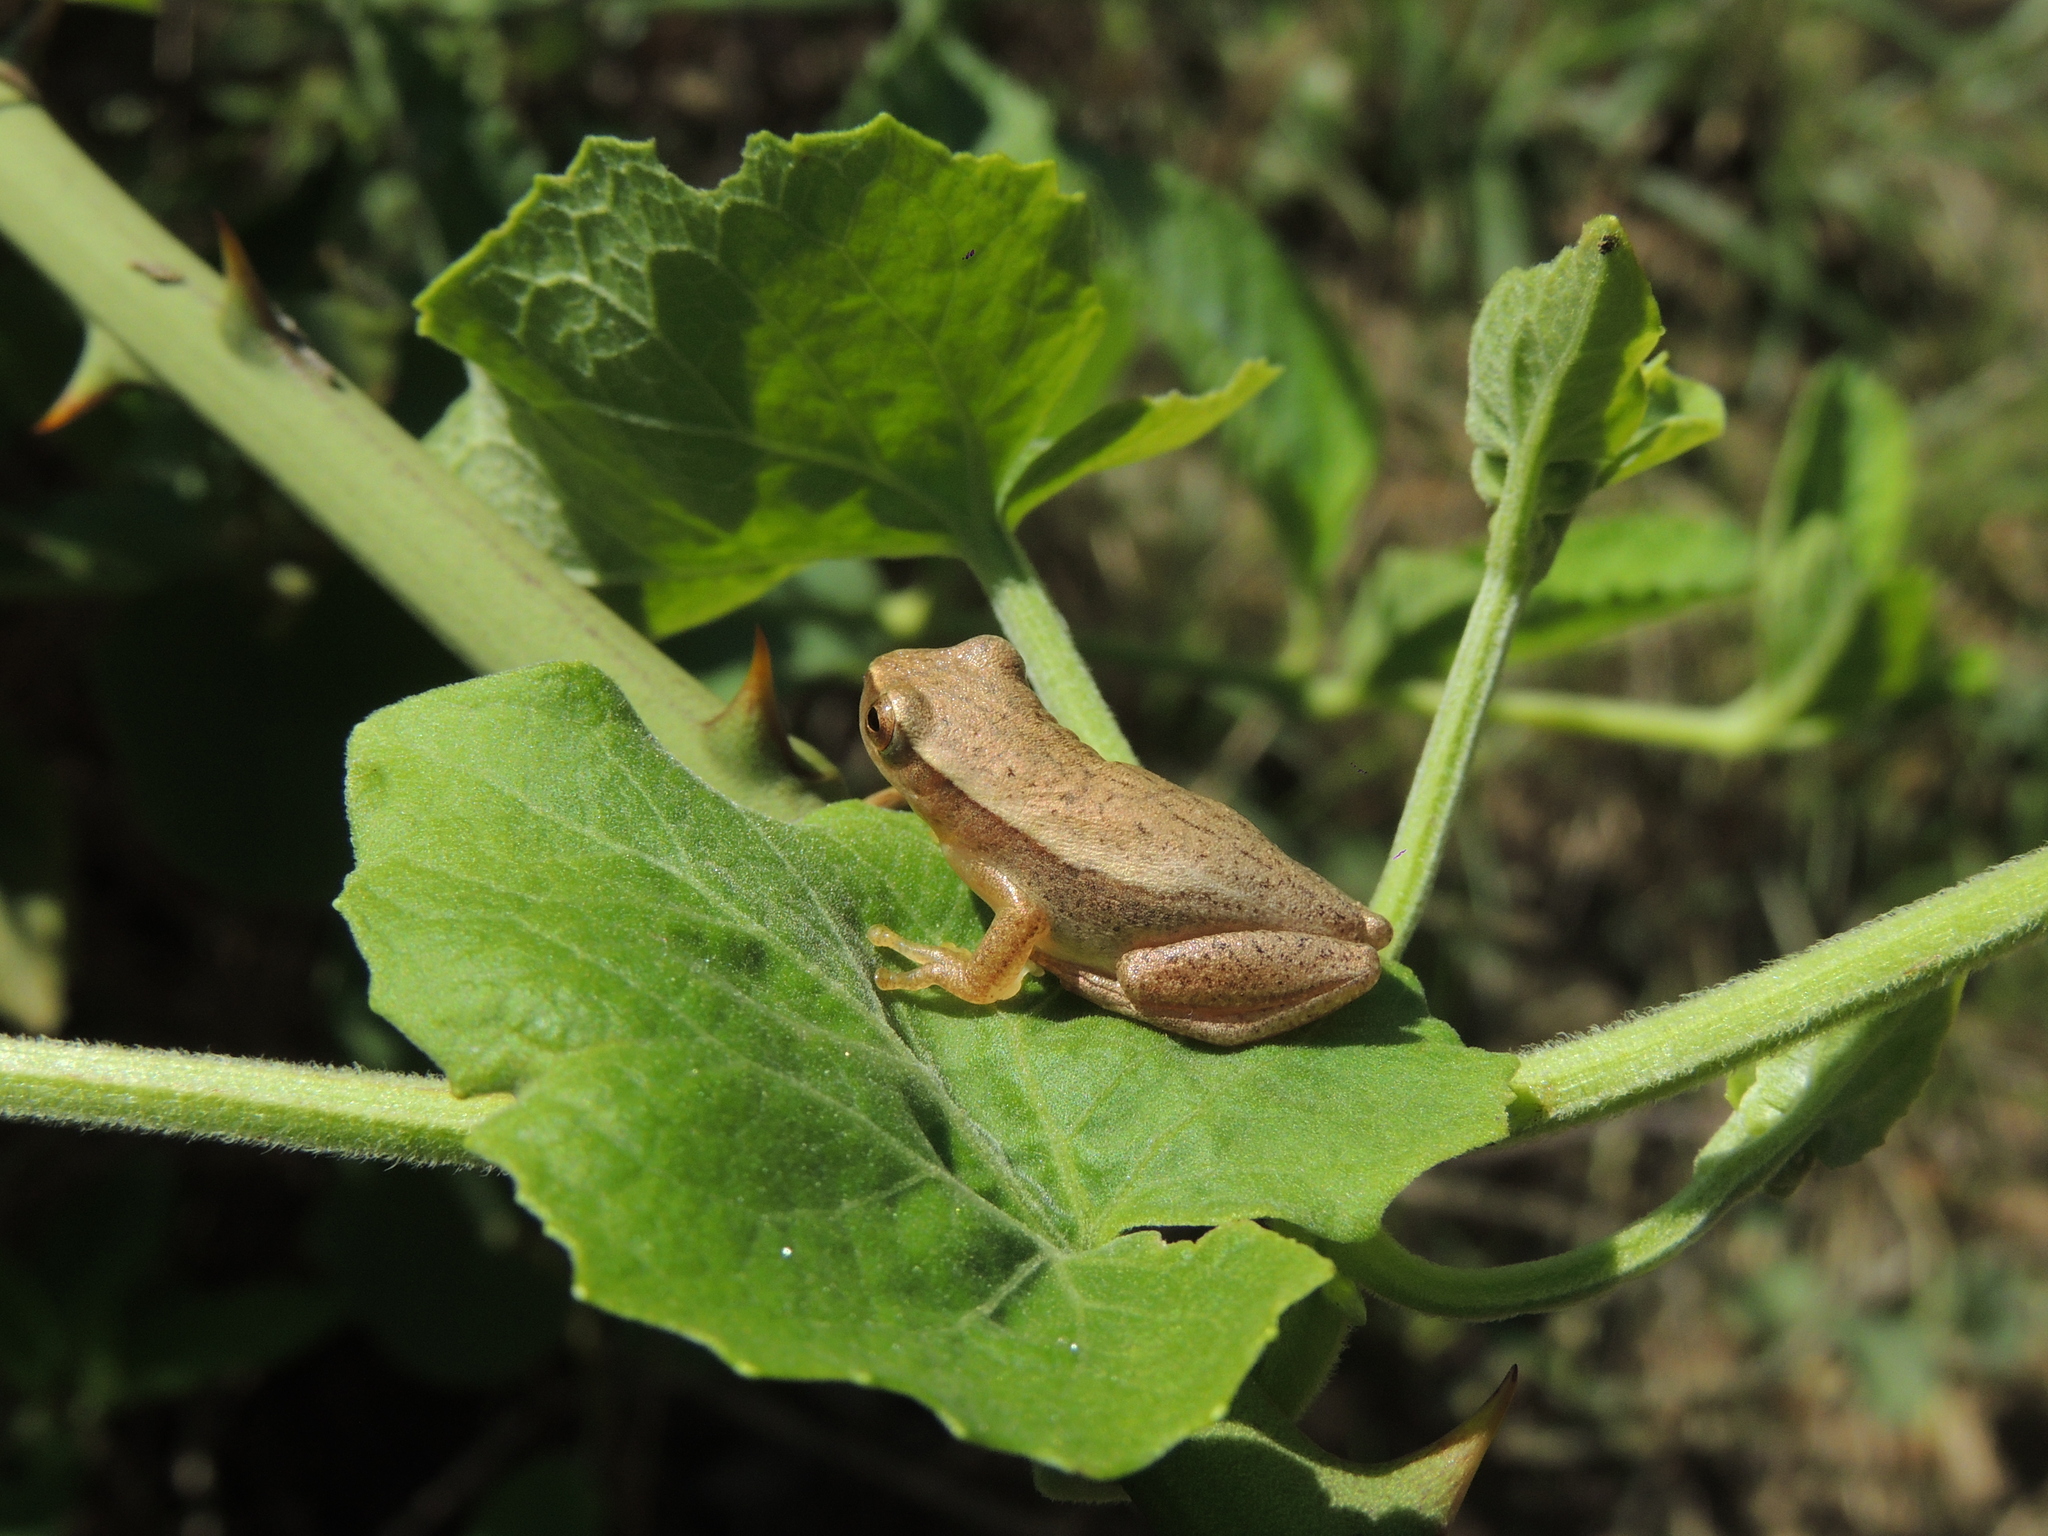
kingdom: Animalia
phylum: Chordata
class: Amphibia
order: Anura
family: Hylidae
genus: Dendropsophus
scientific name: Dendropsophus sanborni
